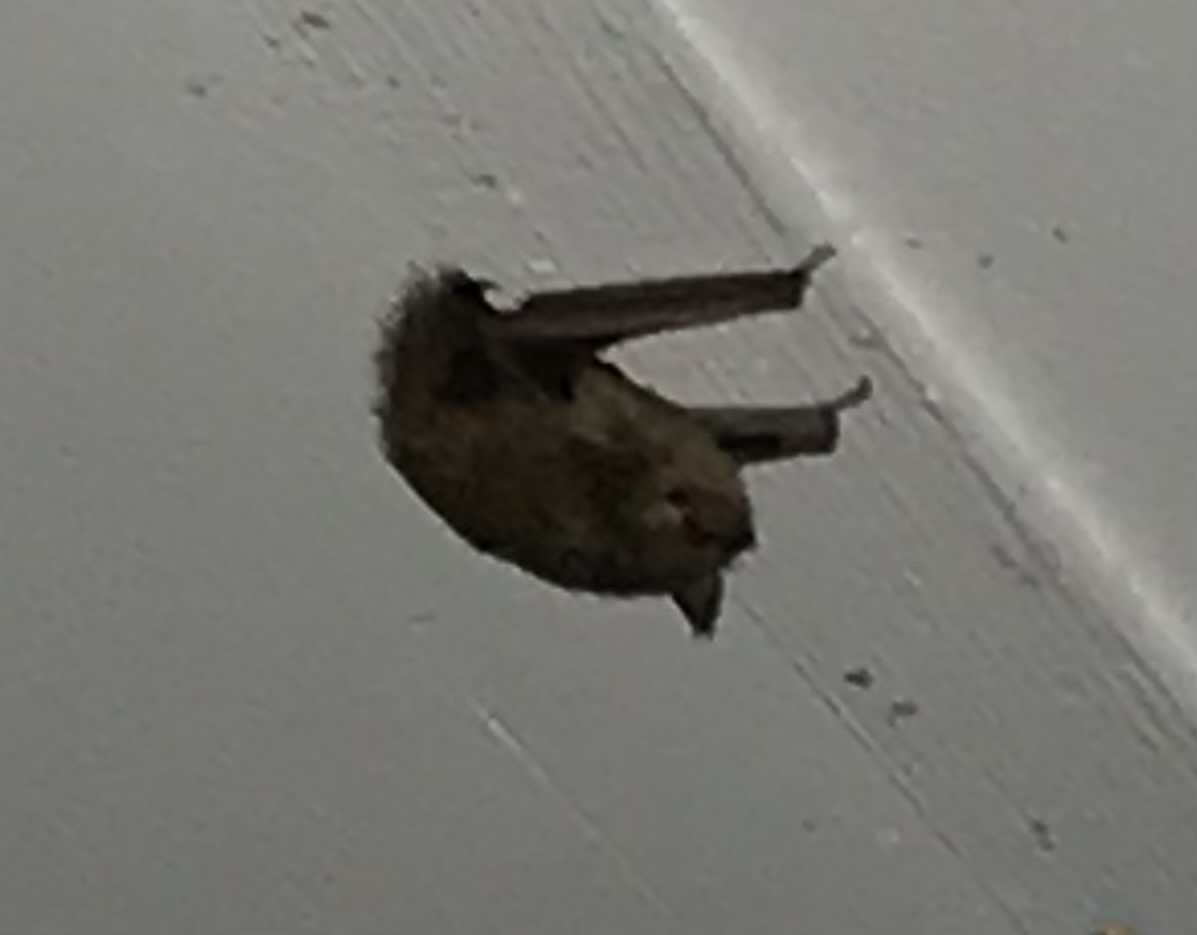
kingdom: Animalia
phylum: Chordata
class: Mammalia
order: Chiroptera
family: Vespertilionidae
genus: Perimyotis
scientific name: Perimyotis subflavus
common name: Eastern pipistrelle
